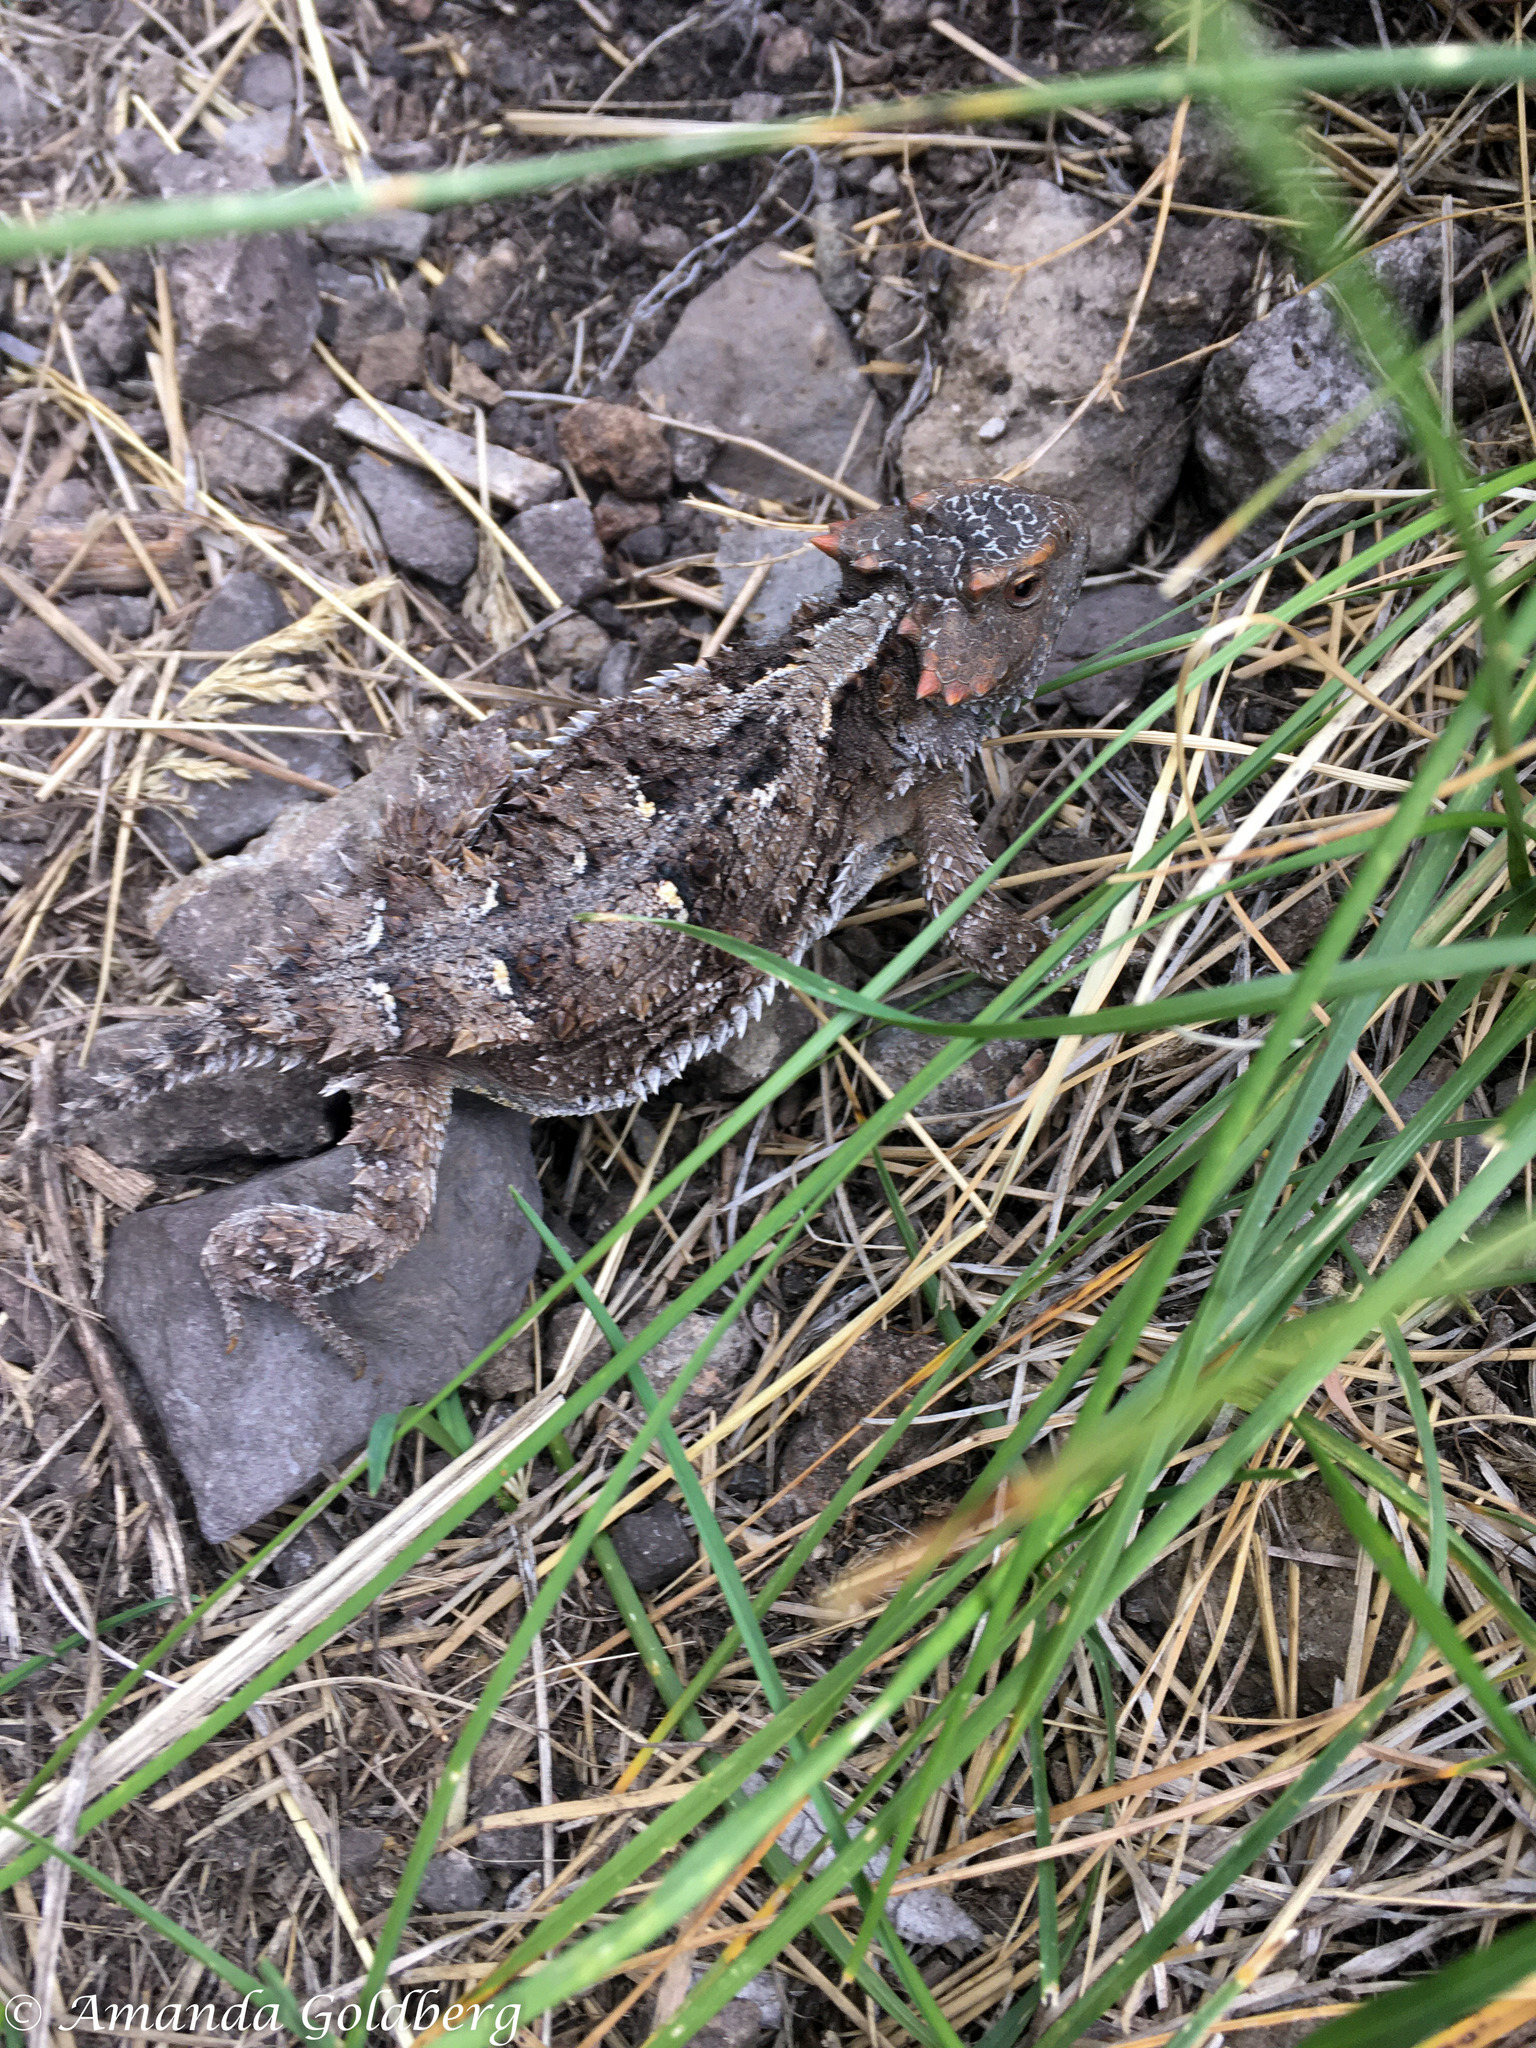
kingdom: Animalia
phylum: Chordata
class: Squamata
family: Phrynosomatidae
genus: Phrynosoma
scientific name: Phrynosoma hernandesi
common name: Greater short-horned lizard
